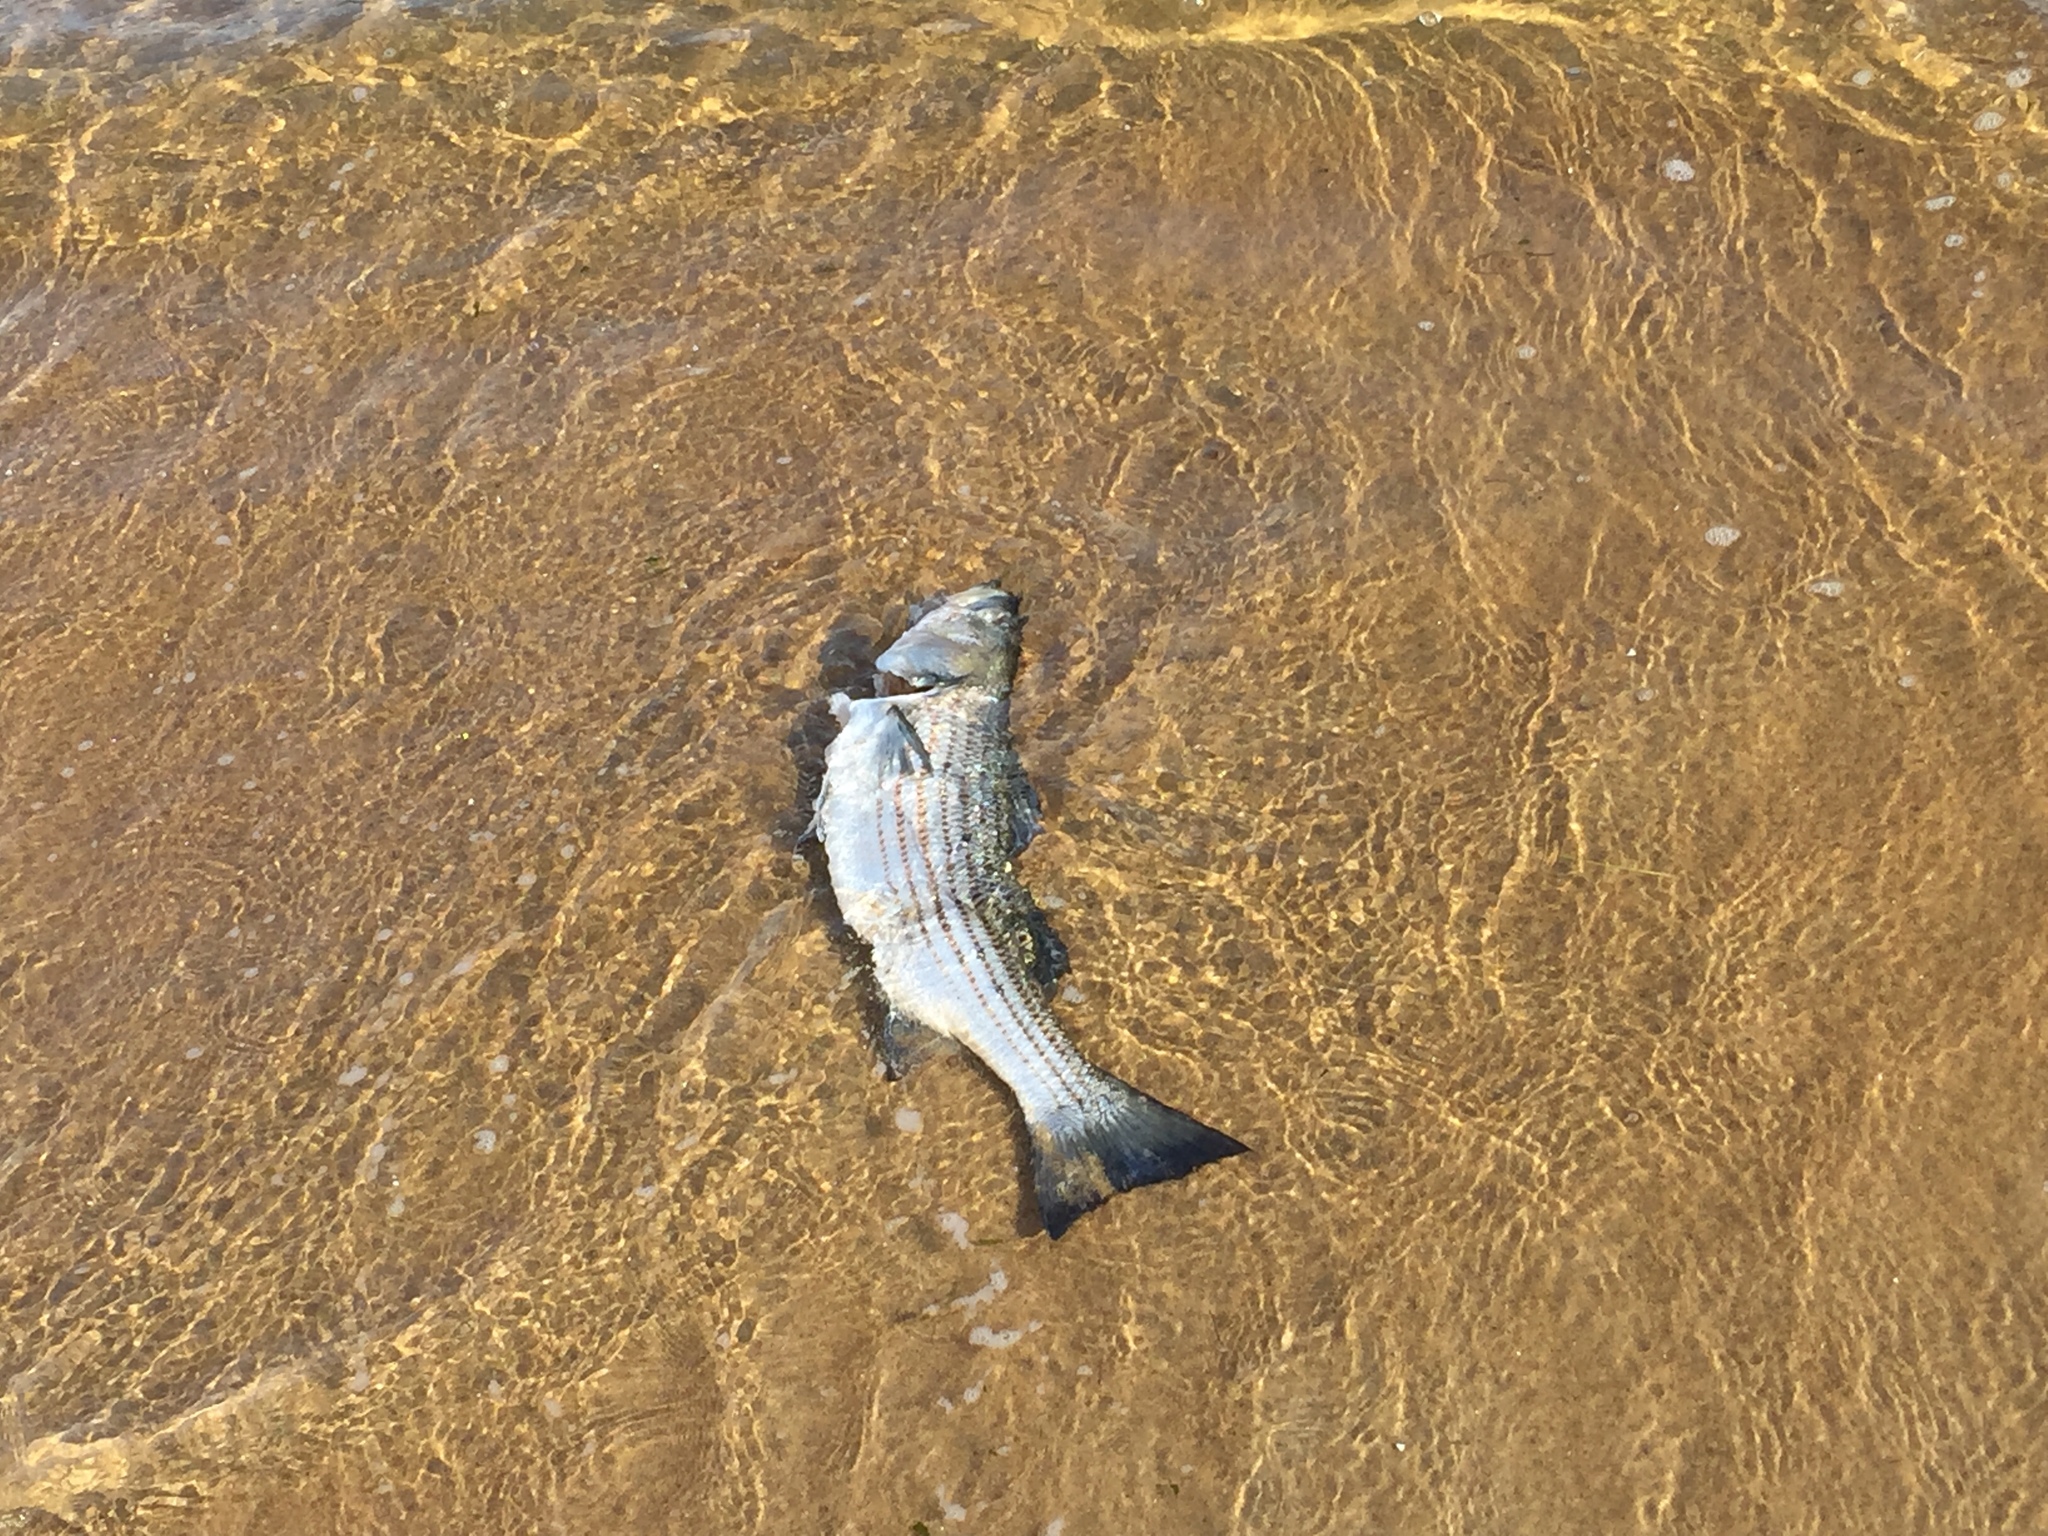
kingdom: Animalia
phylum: Chordata
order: Perciformes
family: Moronidae
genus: Morone
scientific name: Morone saxatilis
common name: Striped bass
